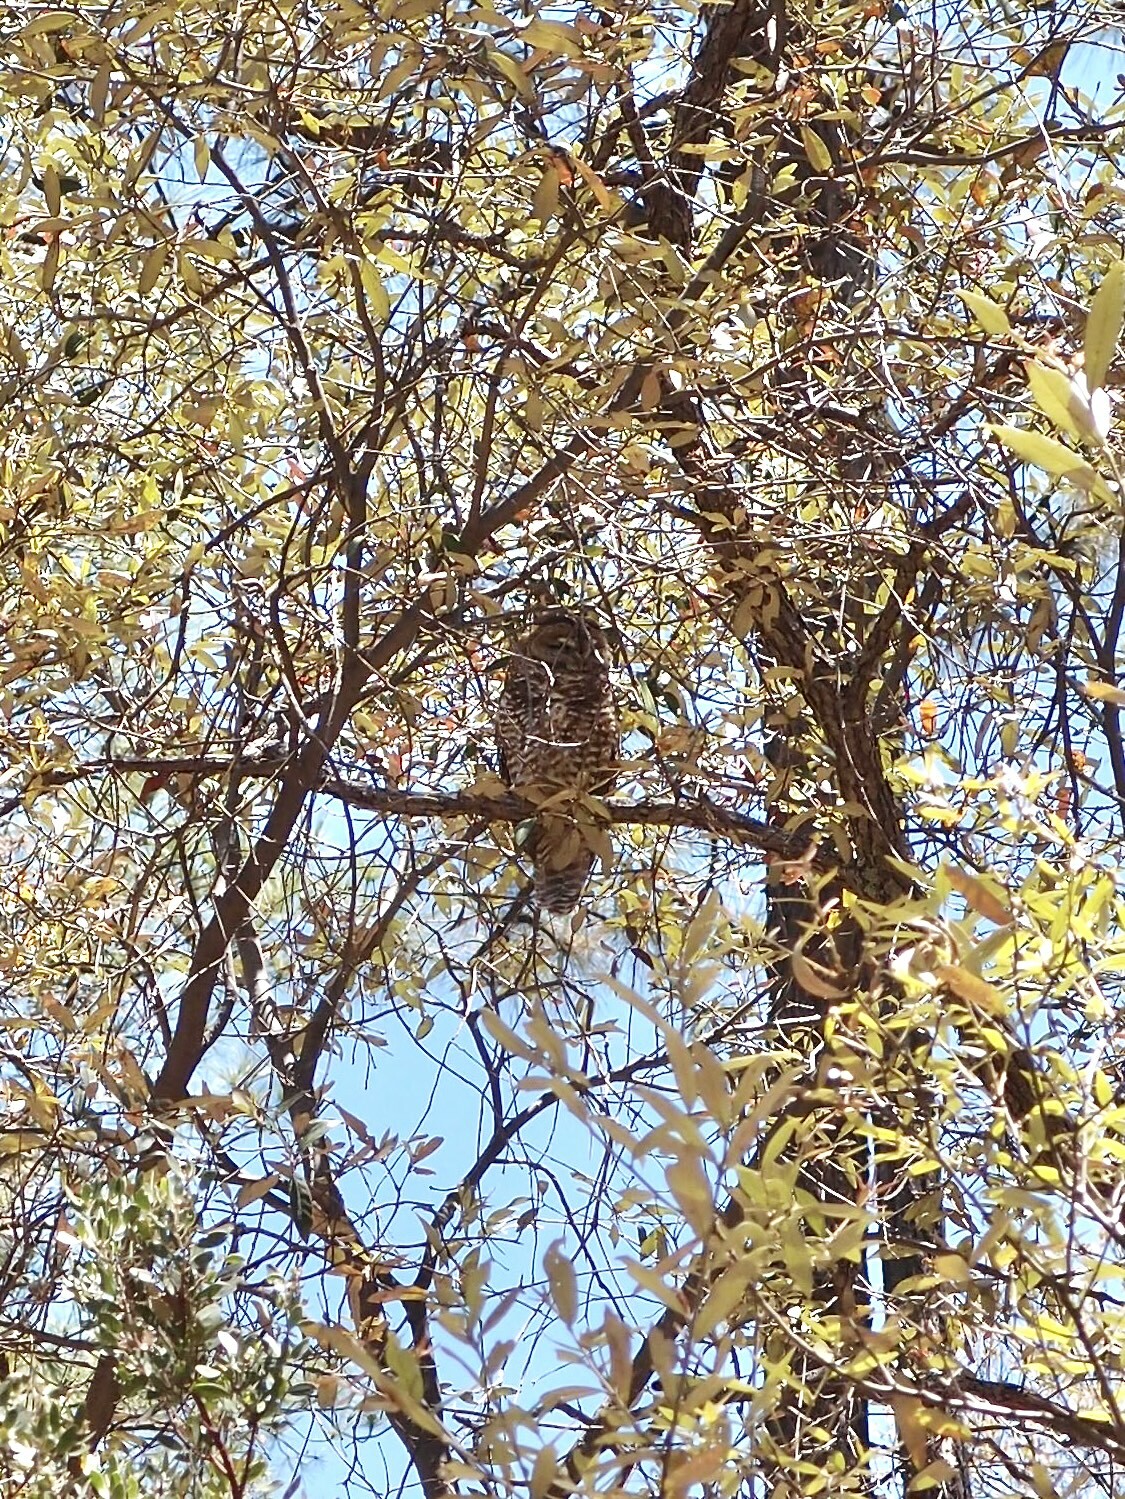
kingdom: Animalia
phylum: Chordata
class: Aves
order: Strigiformes
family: Strigidae
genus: Strix
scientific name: Strix occidentalis
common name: Spotted owl
